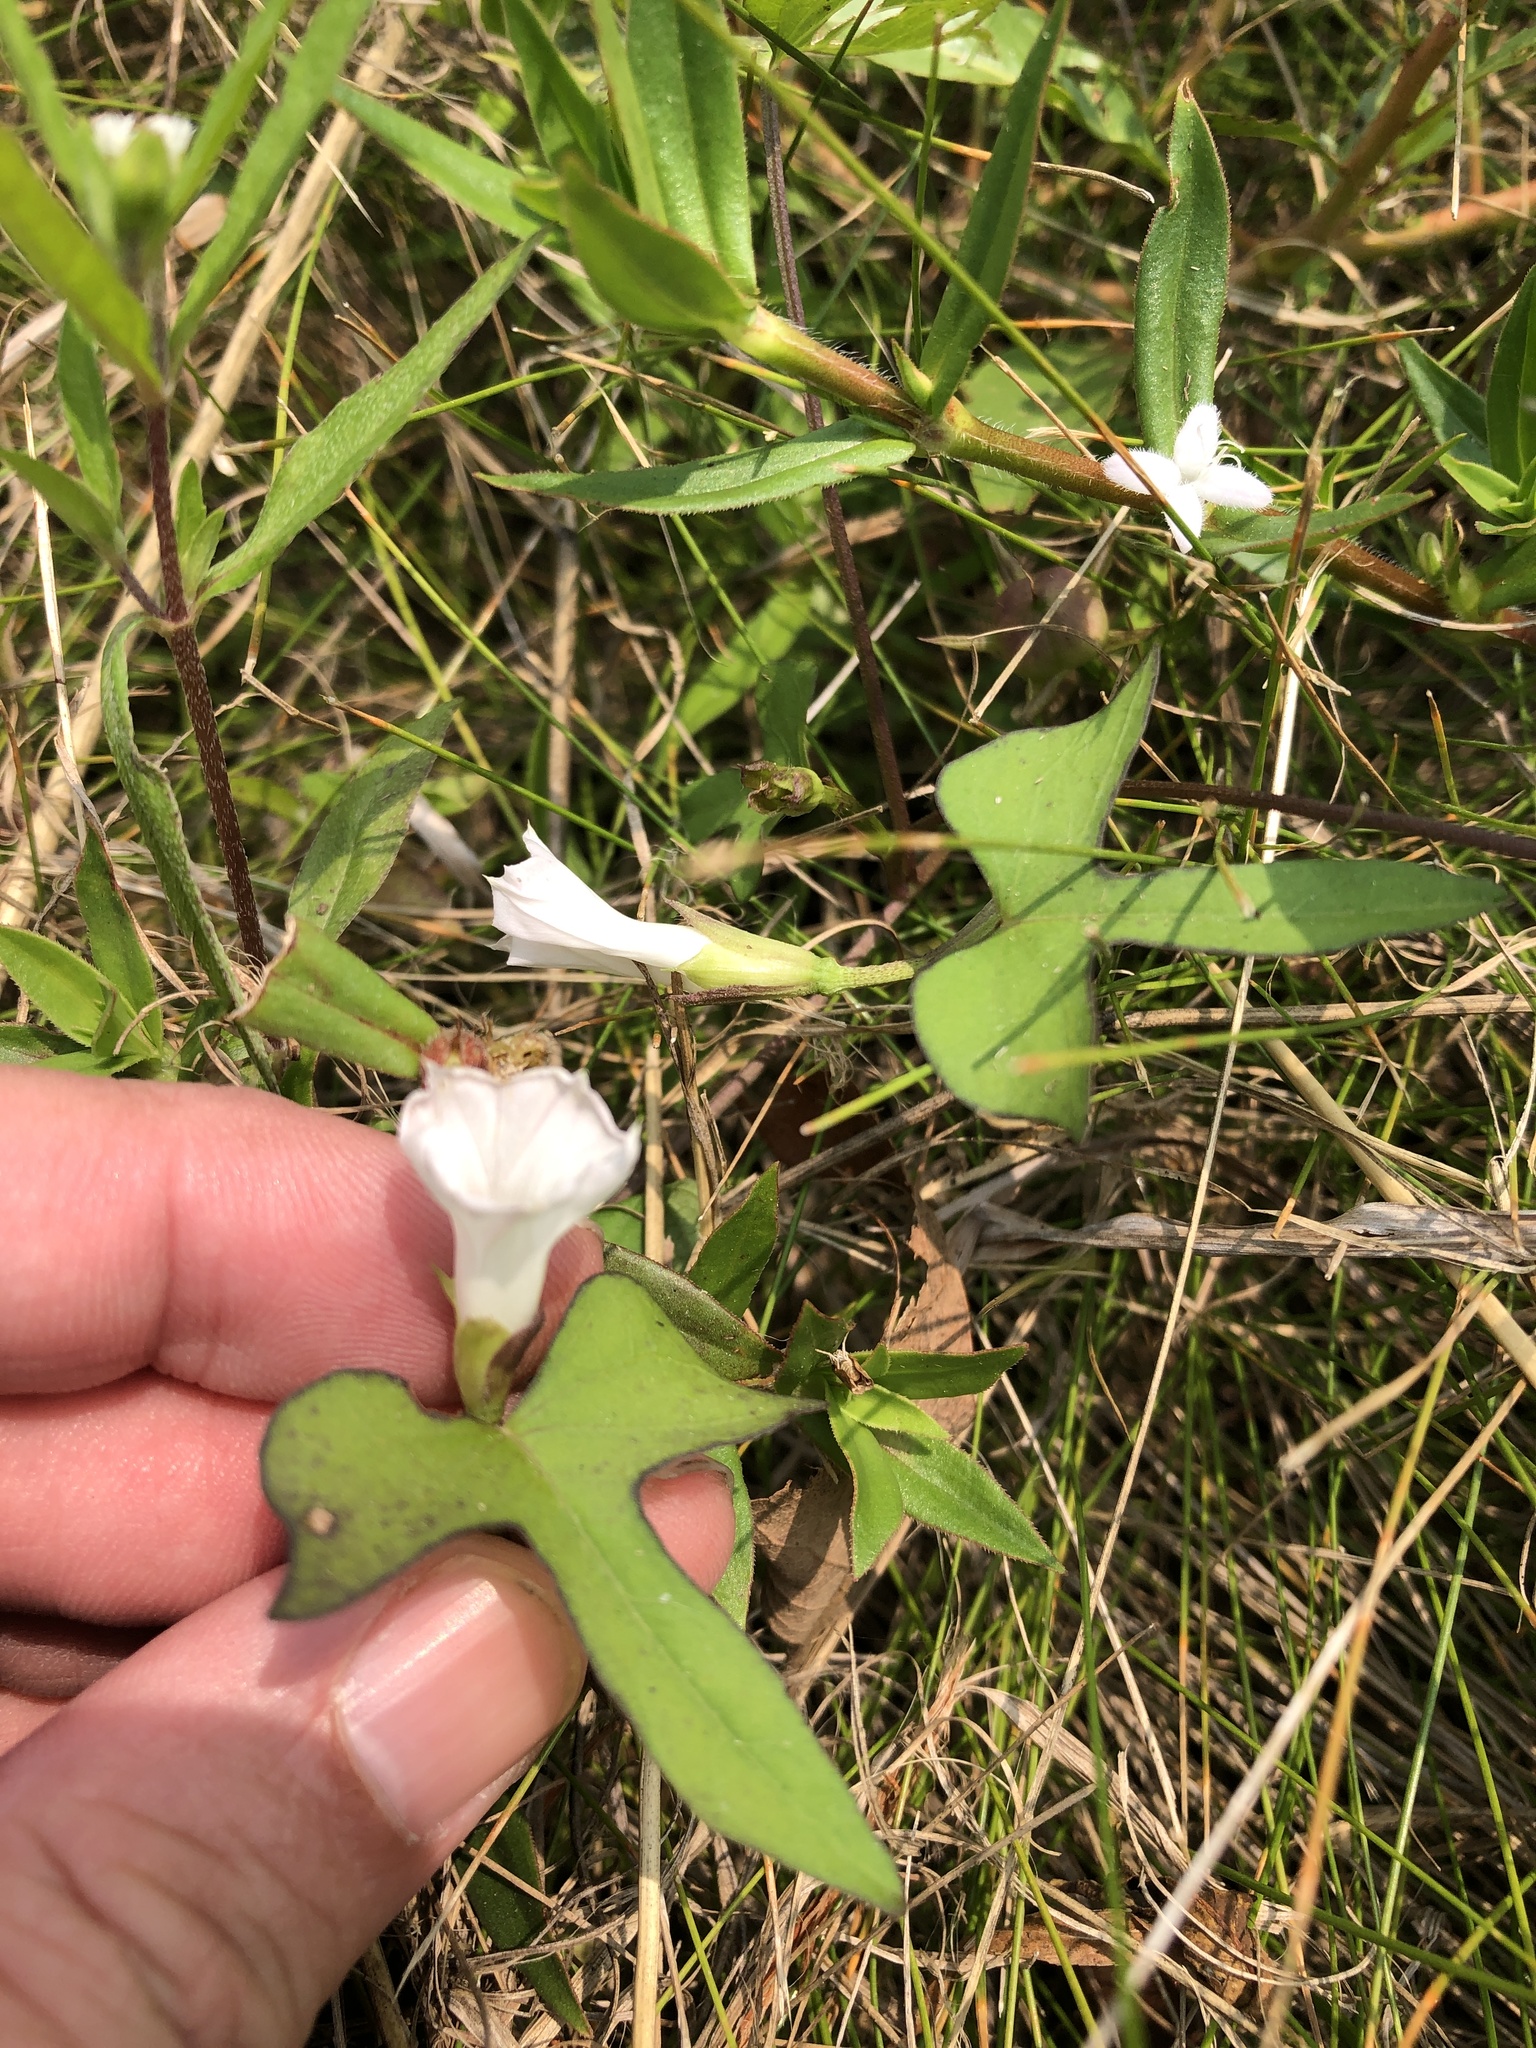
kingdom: Plantae
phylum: Tracheophyta
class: Magnoliopsida
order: Solanales
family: Convolvulaceae
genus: Ipomoea
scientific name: Ipomoea lacunosa
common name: White morning-glory
